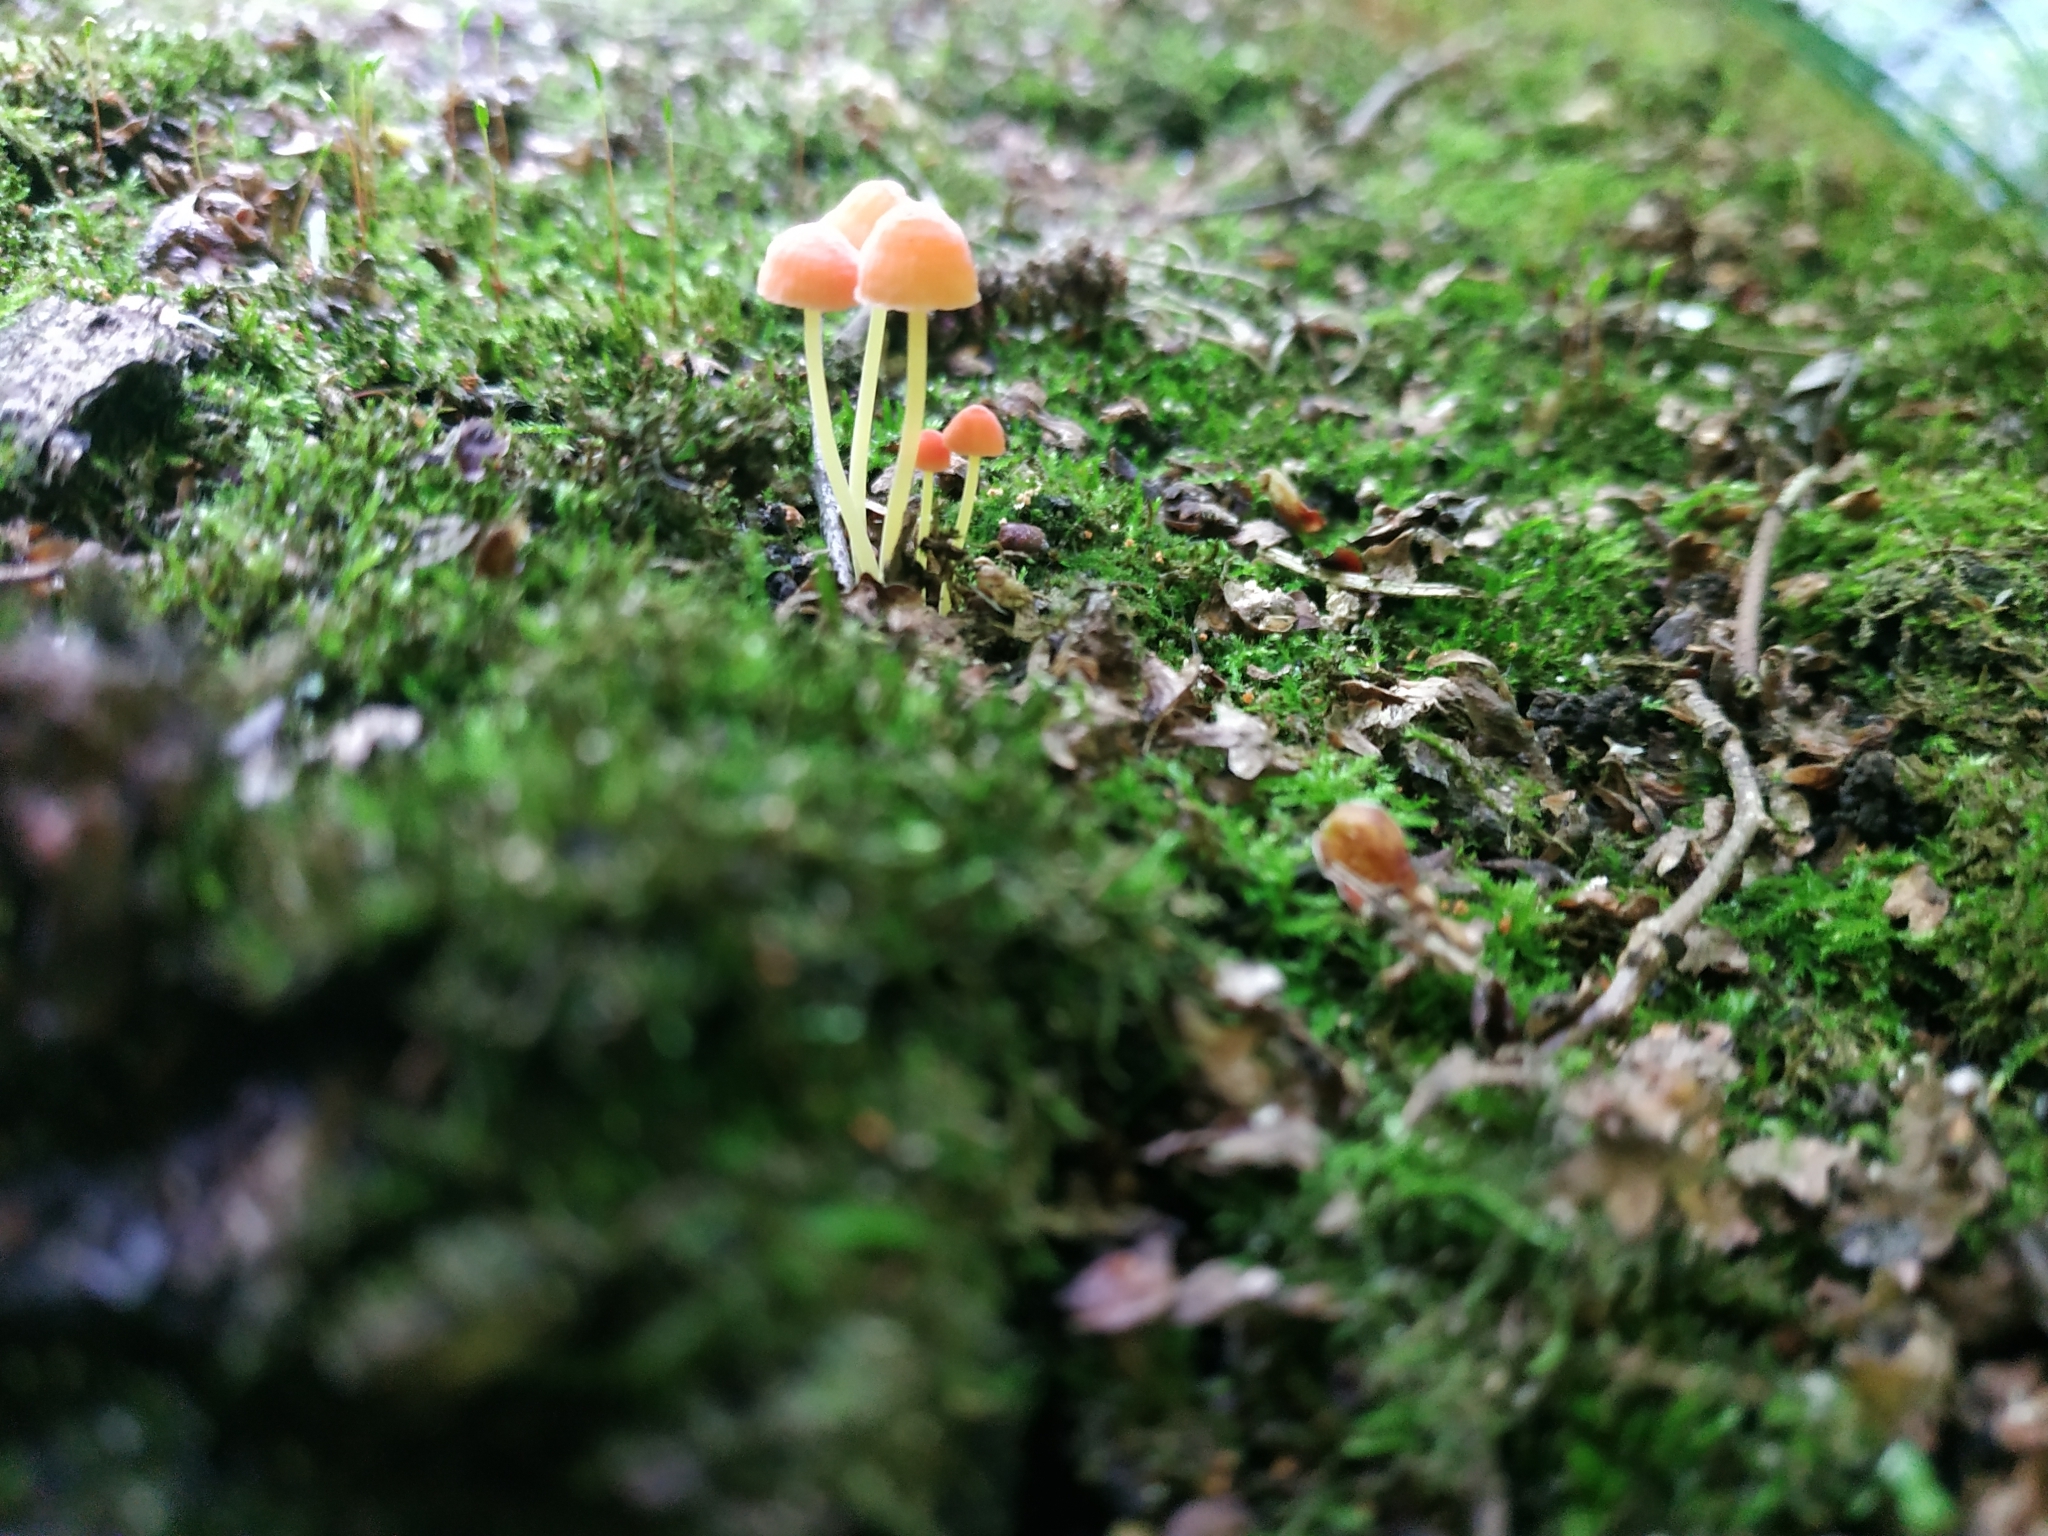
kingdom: Fungi
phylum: Basidiomycota
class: Agaricomycetes
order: Agaricales
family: Mycenaceae
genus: Mycena
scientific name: Mycena acicula
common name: Orange bonnet
